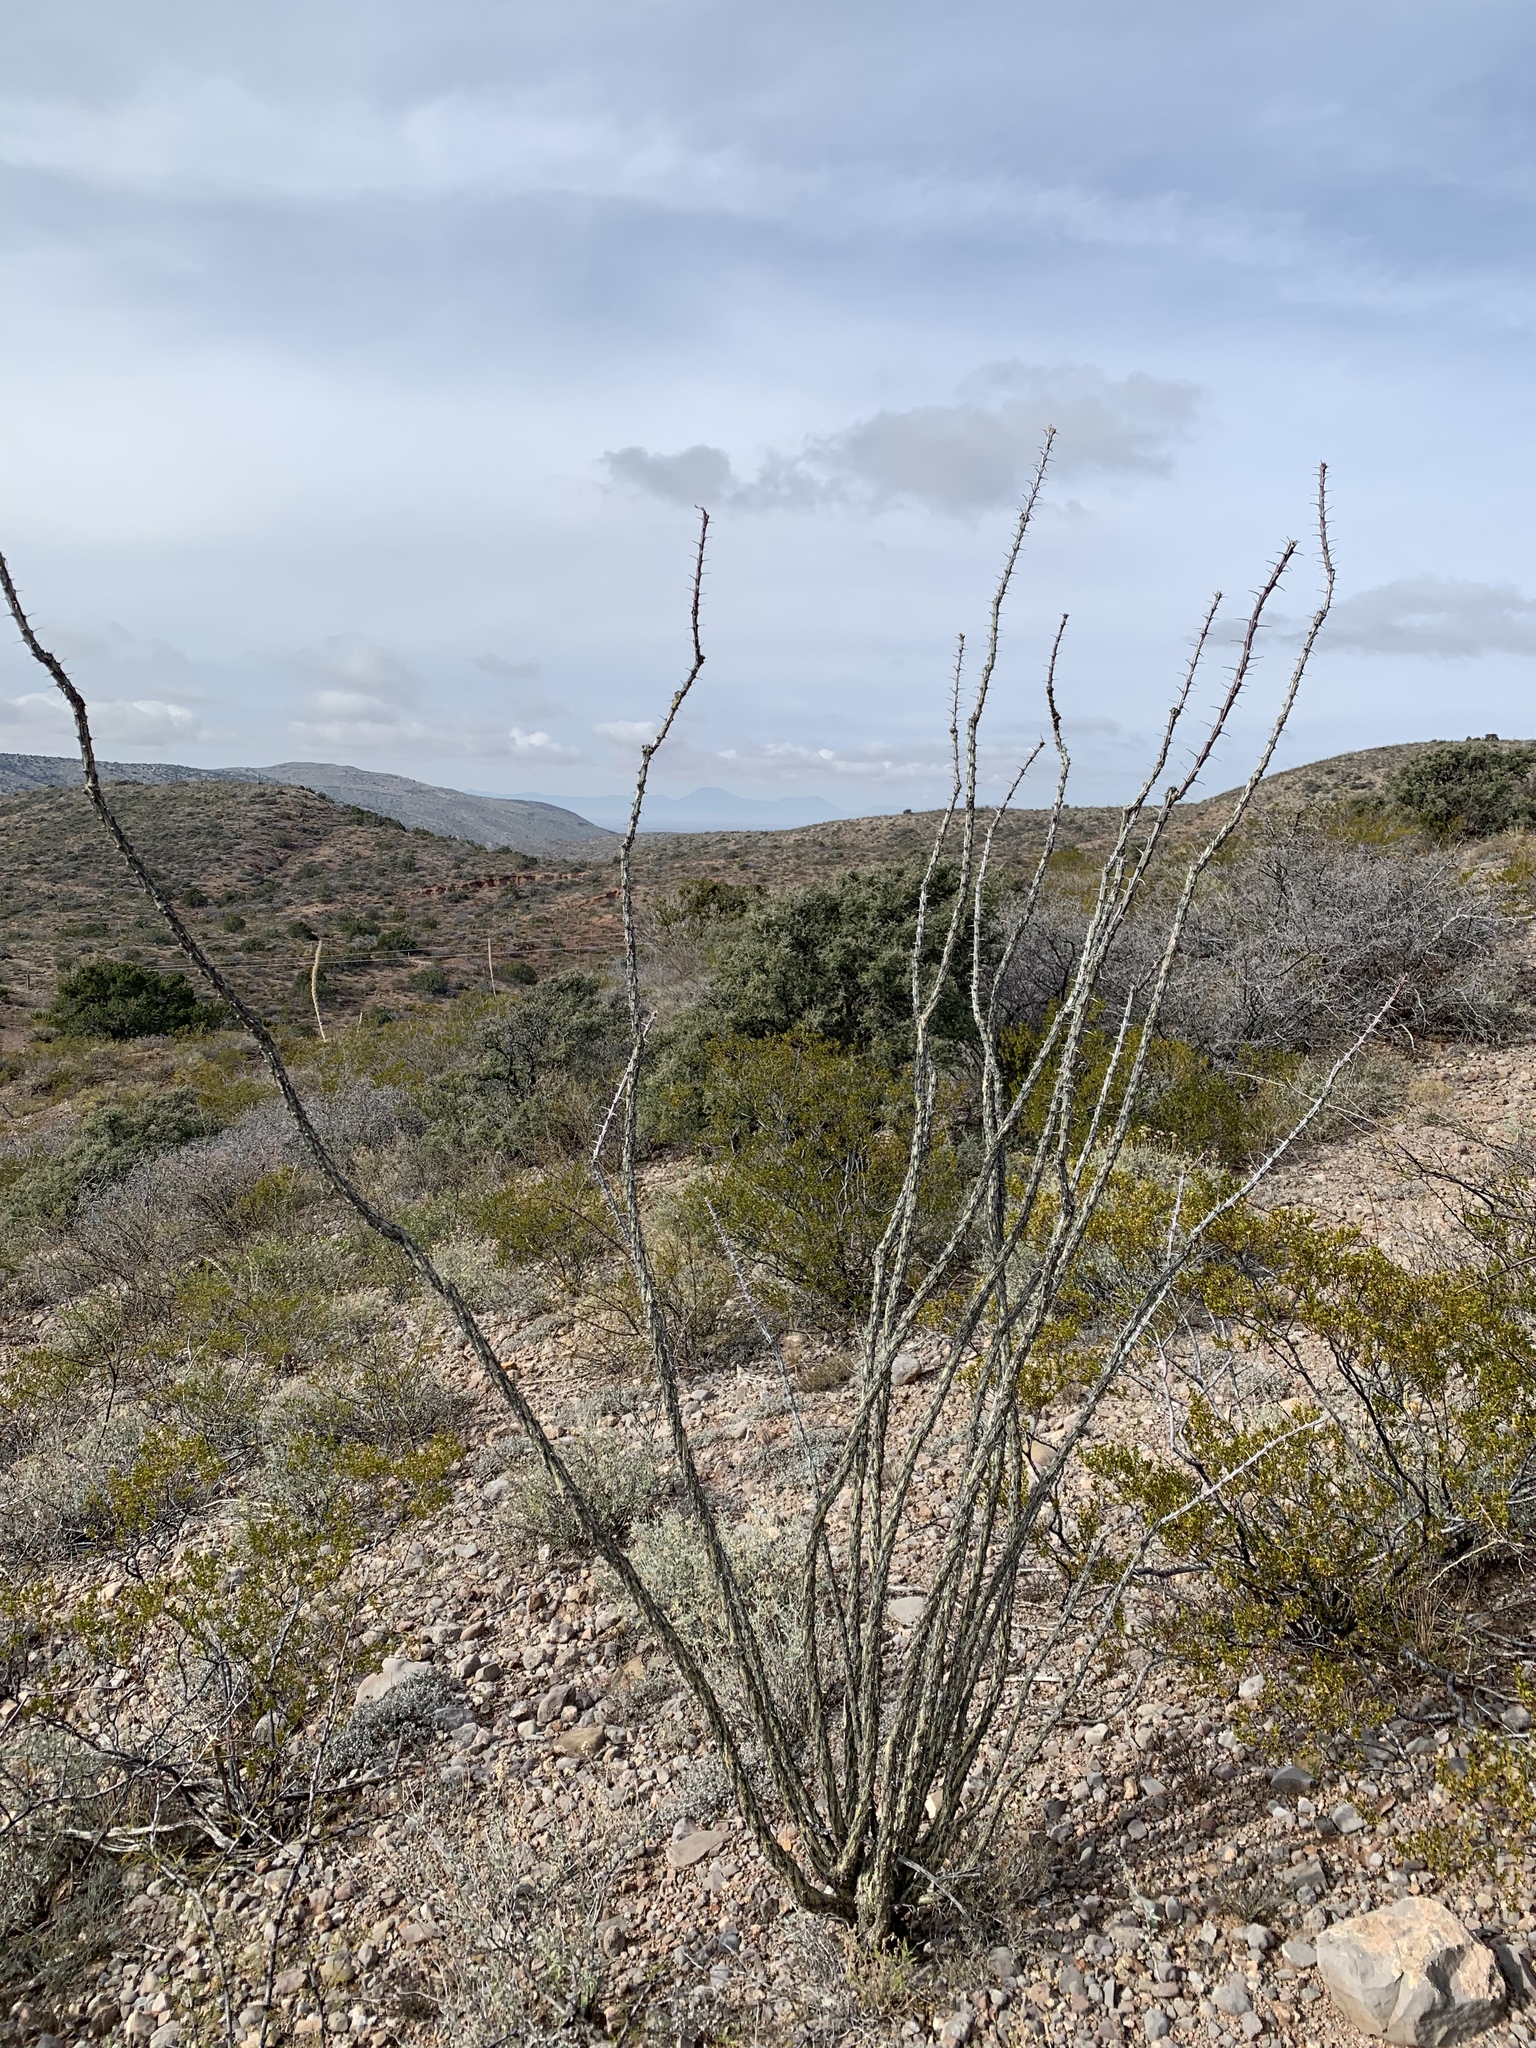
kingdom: Plantae
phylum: Tracheophyta
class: Magnoliopsida
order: Ericales
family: Fouquieriaceae
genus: Fouquieria
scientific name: Fouquieria splendens
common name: Vine-cactus
